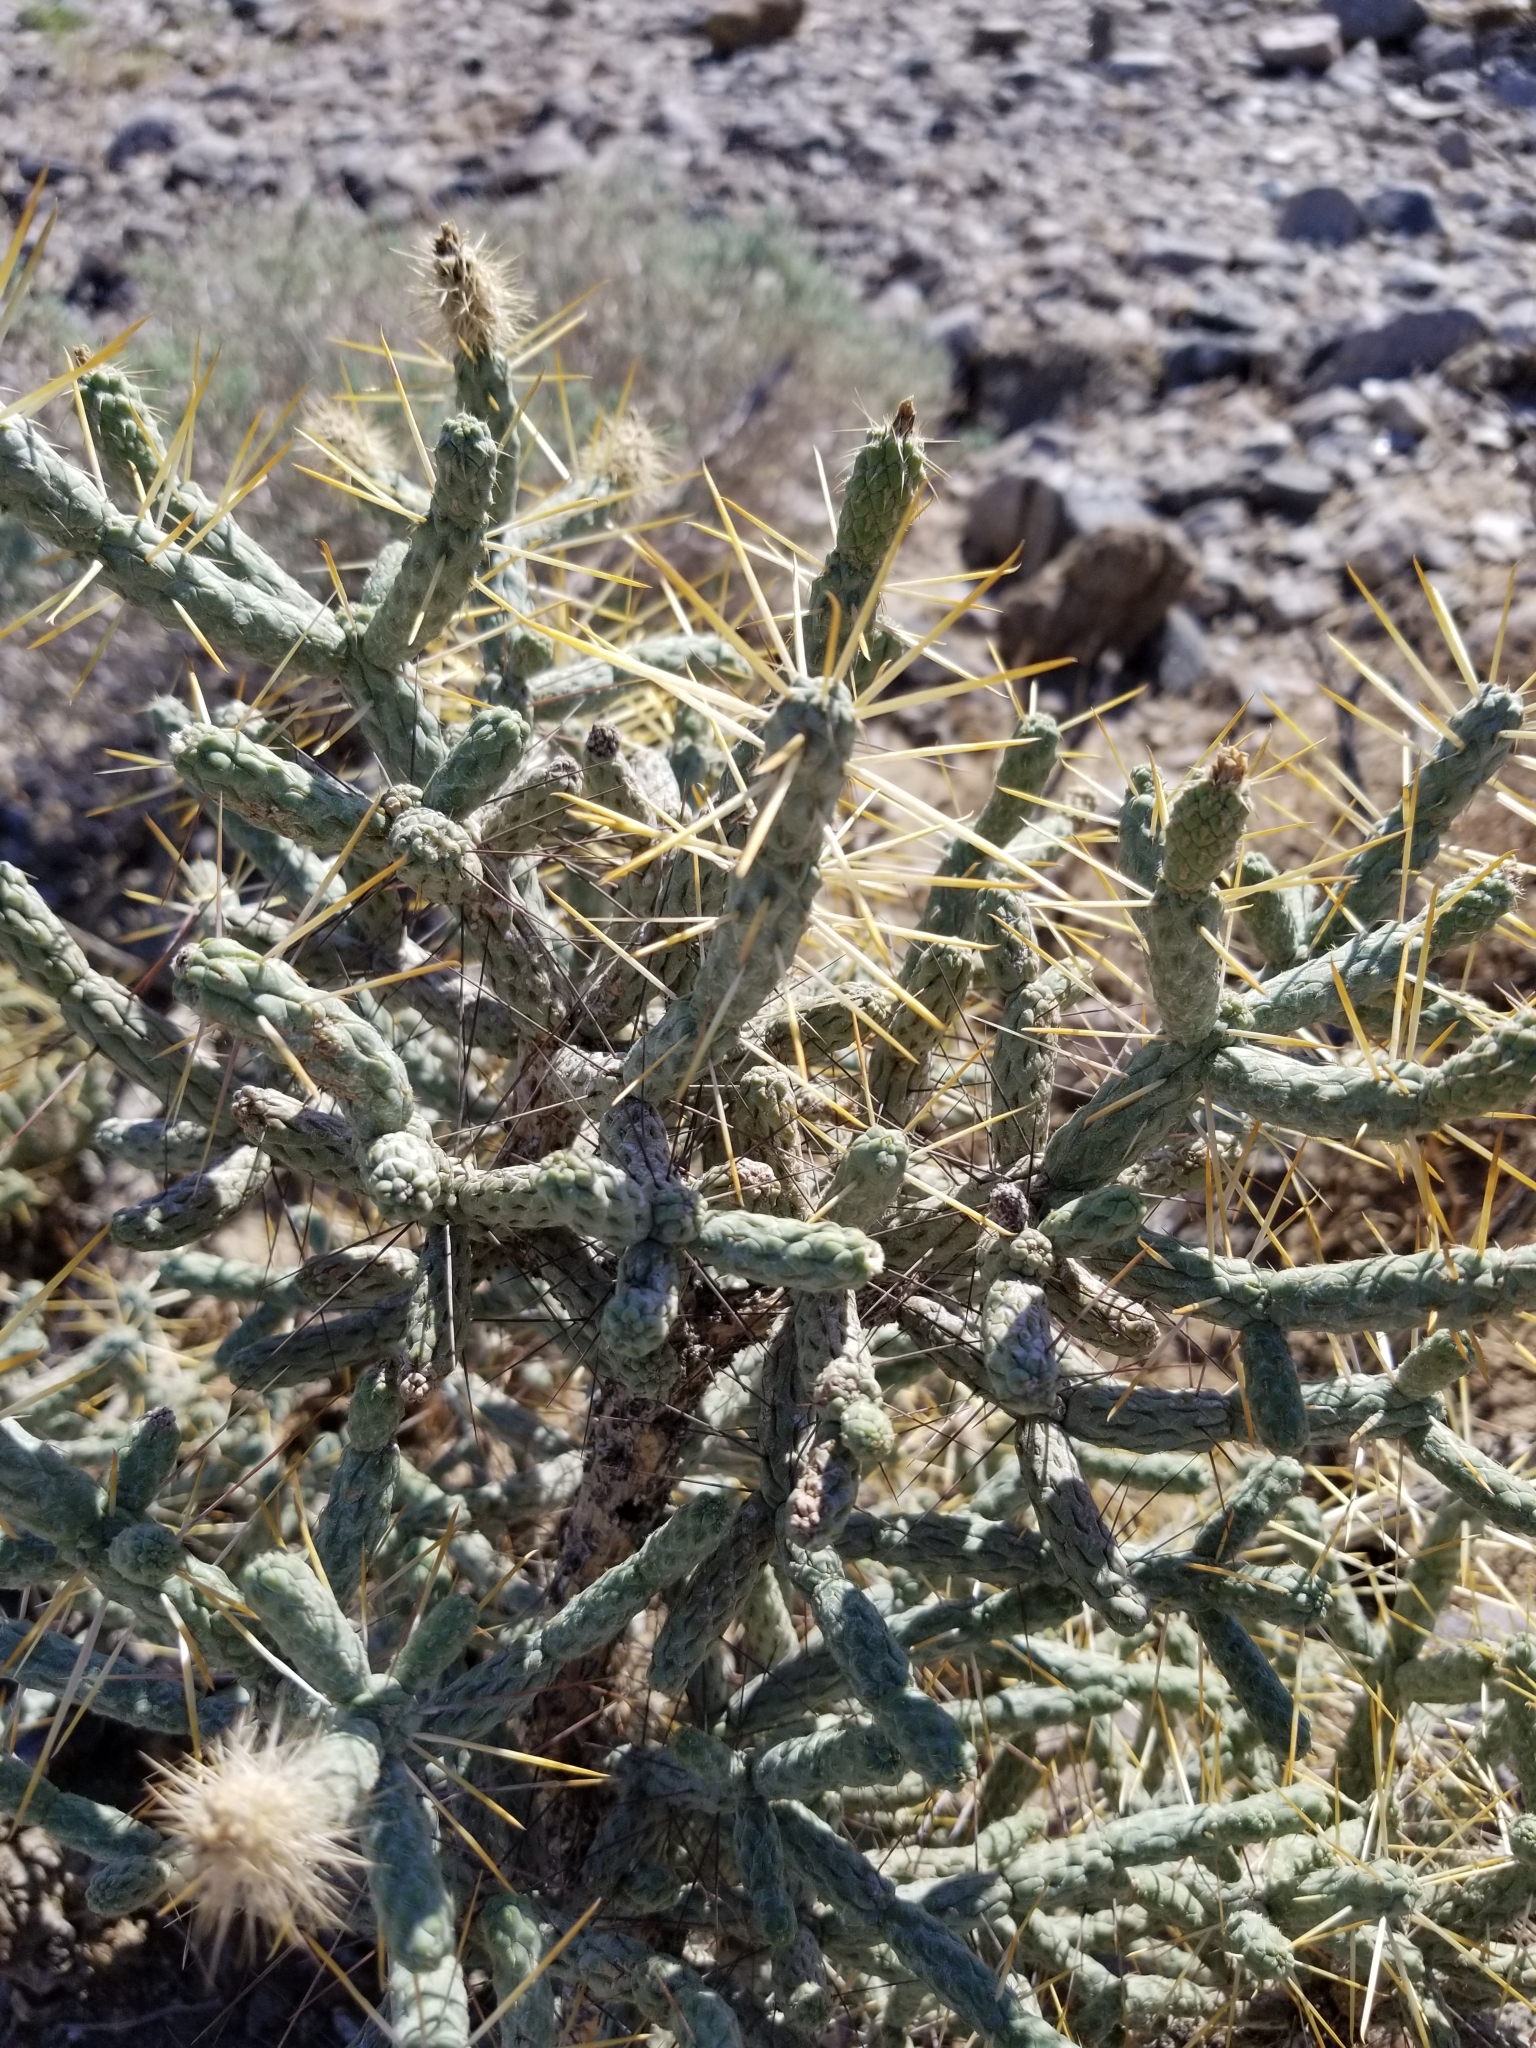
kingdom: Plantae
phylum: Tracheophyta
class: Magnoliopsida
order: Caryophyllales
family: Cactaceae
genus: Cylindropuntia
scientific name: Cylindropuntia ramosissima
